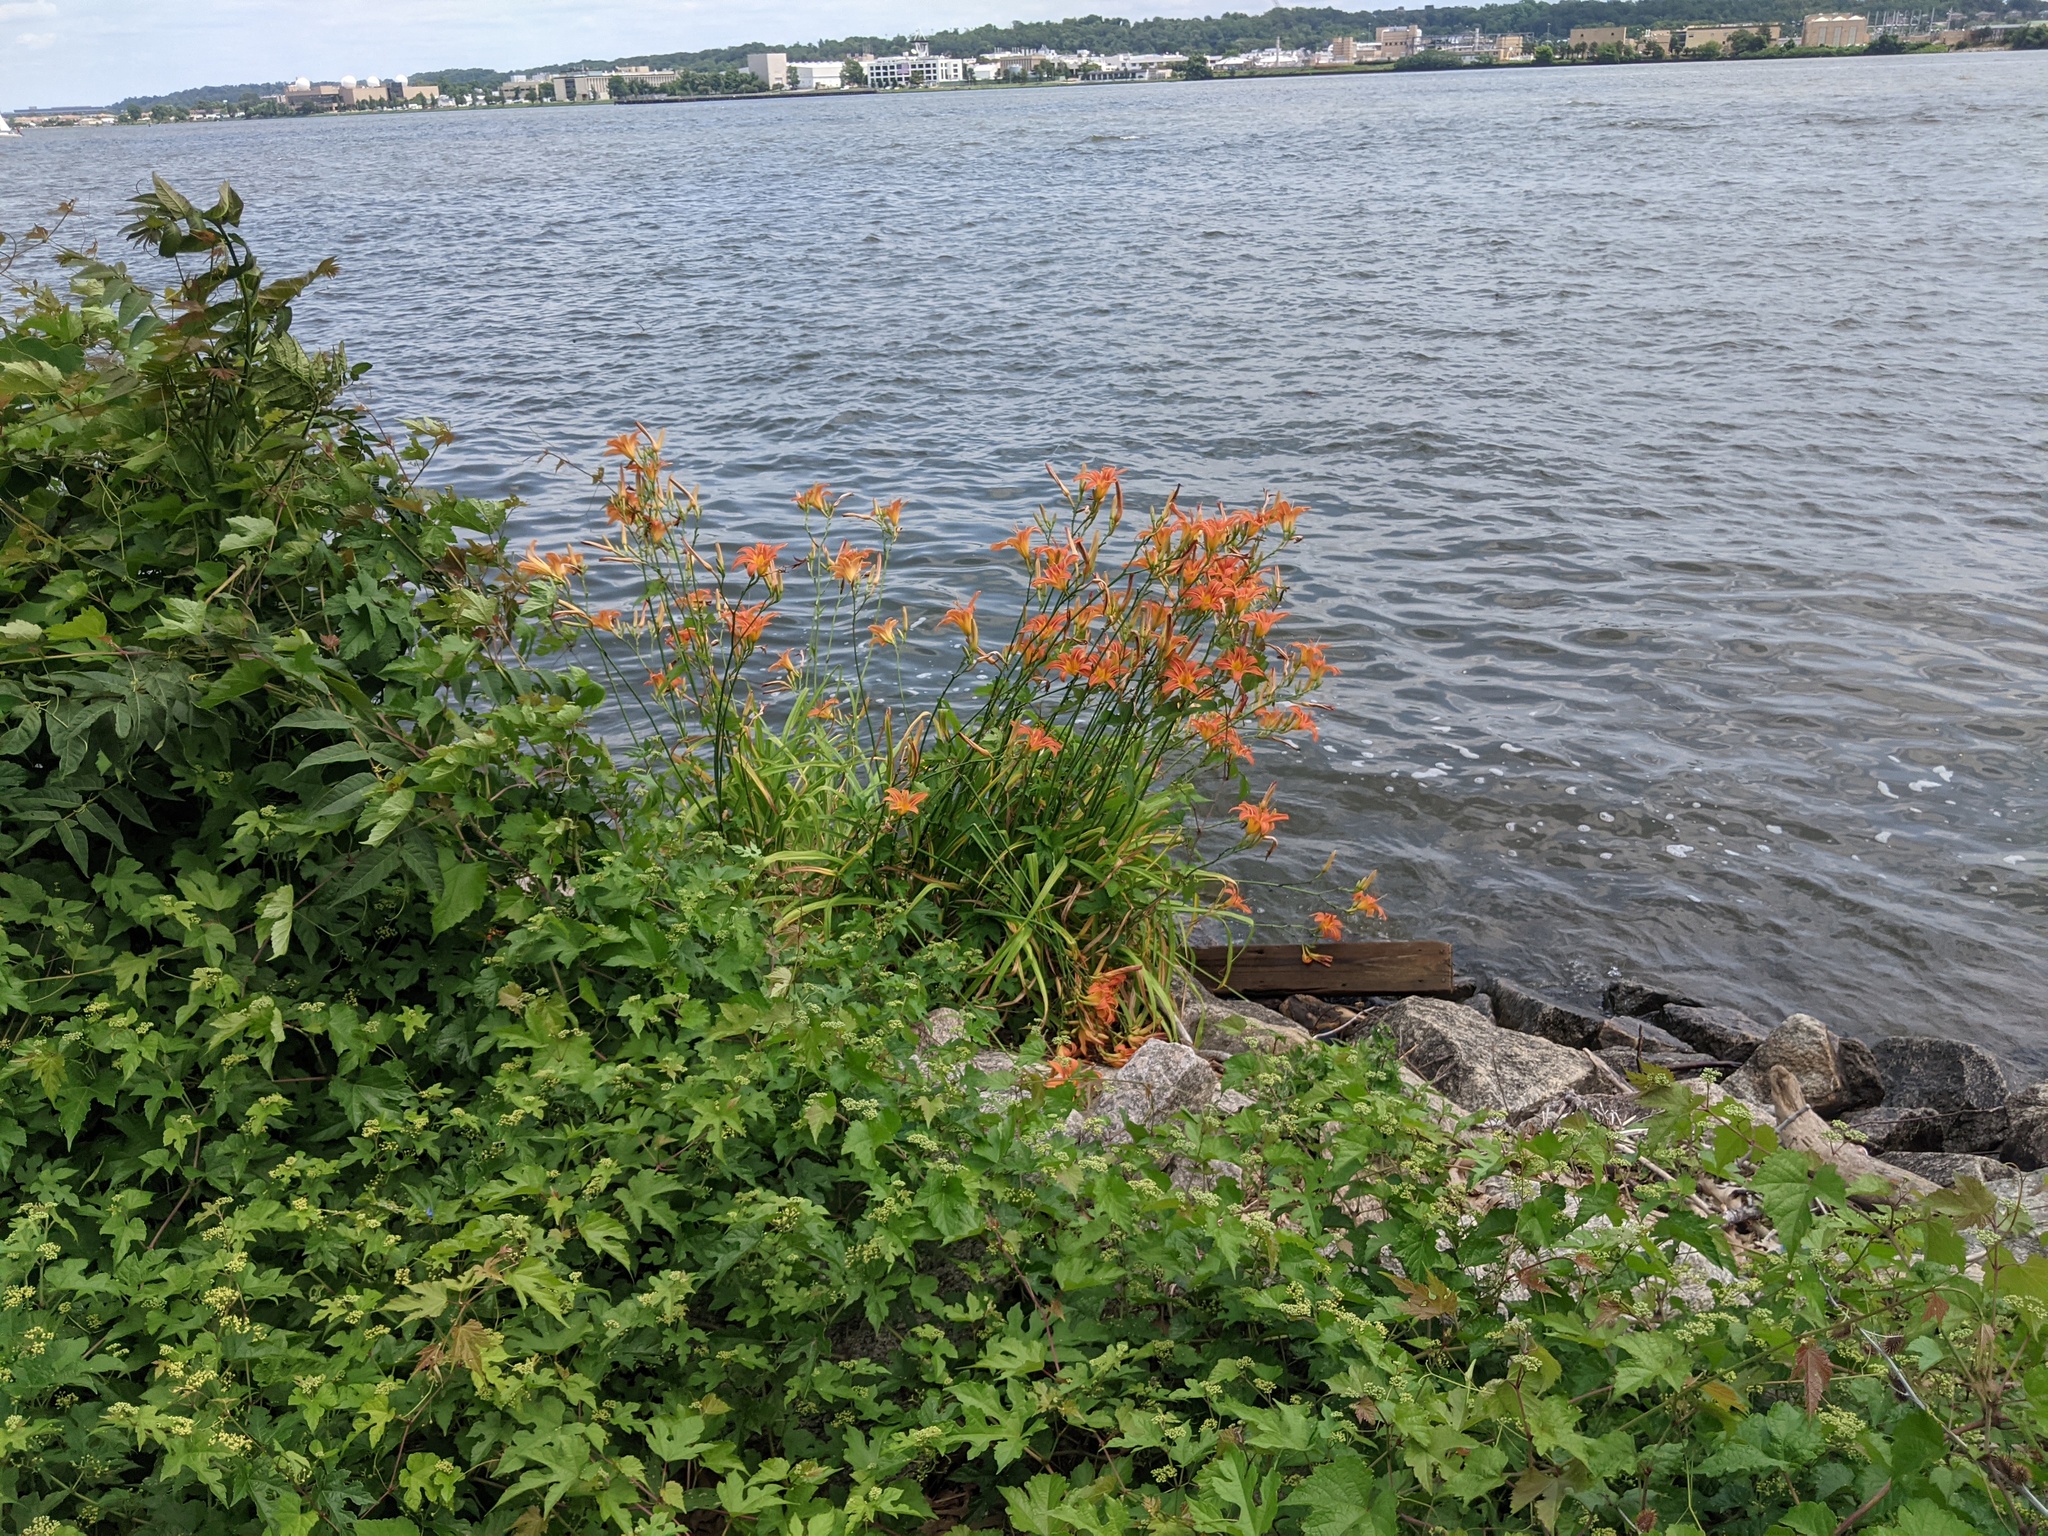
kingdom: Plantae
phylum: Tracheophyta
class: Liliopsida
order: Asparagales
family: Asphodelaceae
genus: Hemerocallis
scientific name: Hemerocallis fulva
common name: Orange day-lily
